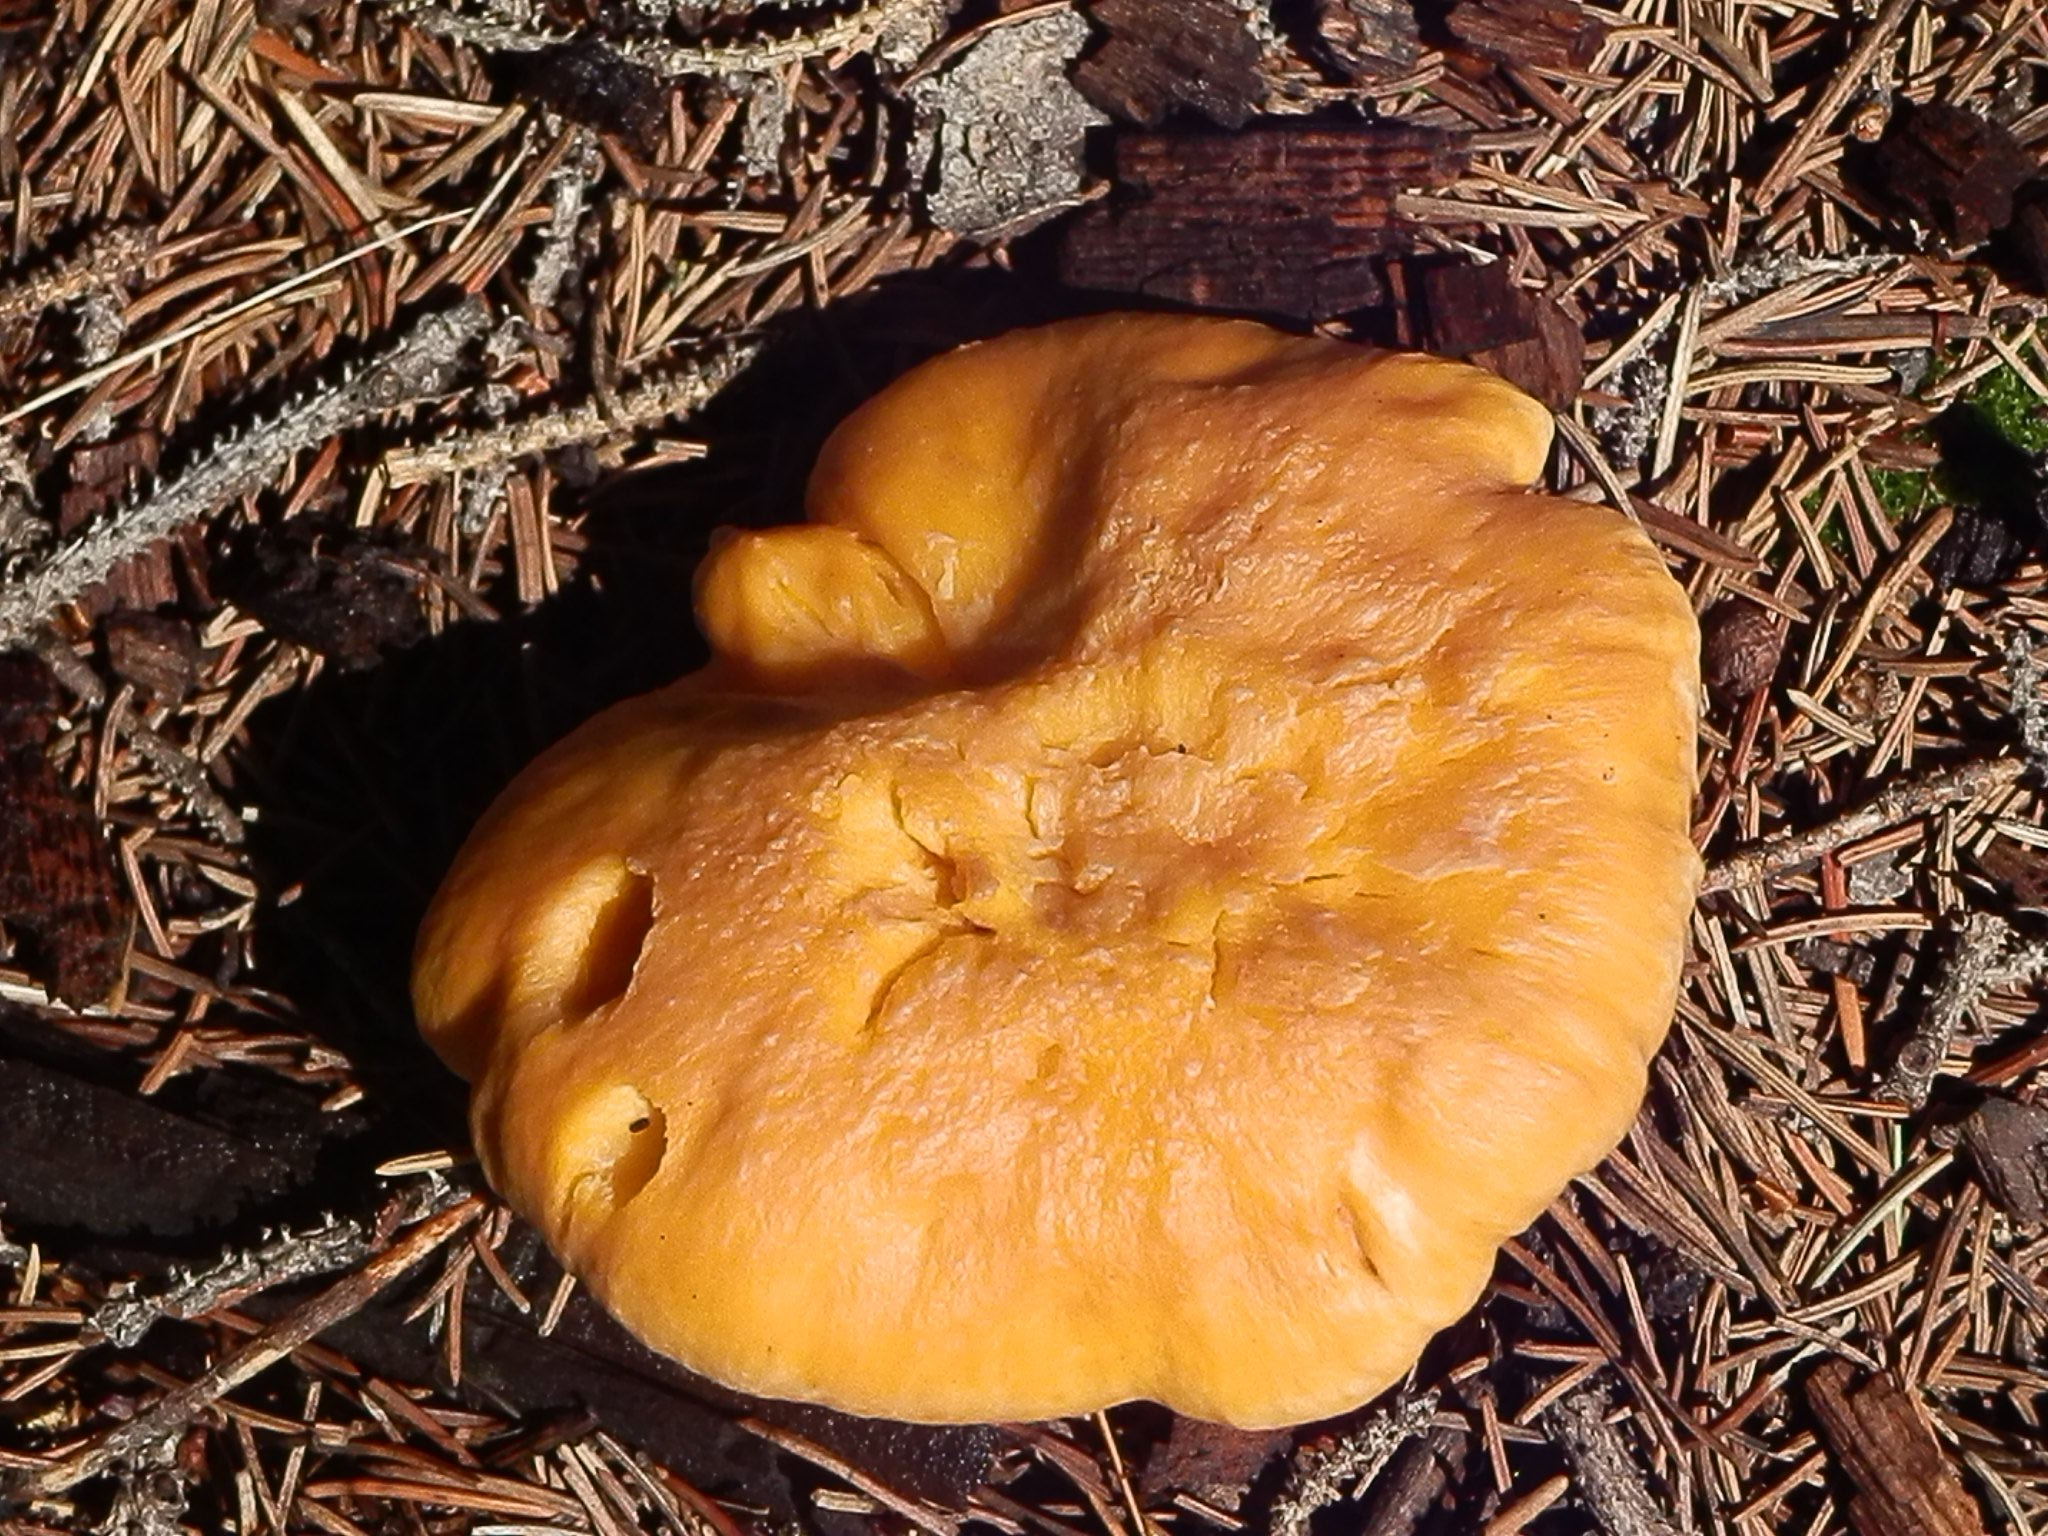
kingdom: Fungi
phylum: Basidiomycota
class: Agaricomycetes
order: Cantharellales
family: Hydnaceae
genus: Cantharellus
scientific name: Cantharellus roseocanus
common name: Rainbow chanterelle
